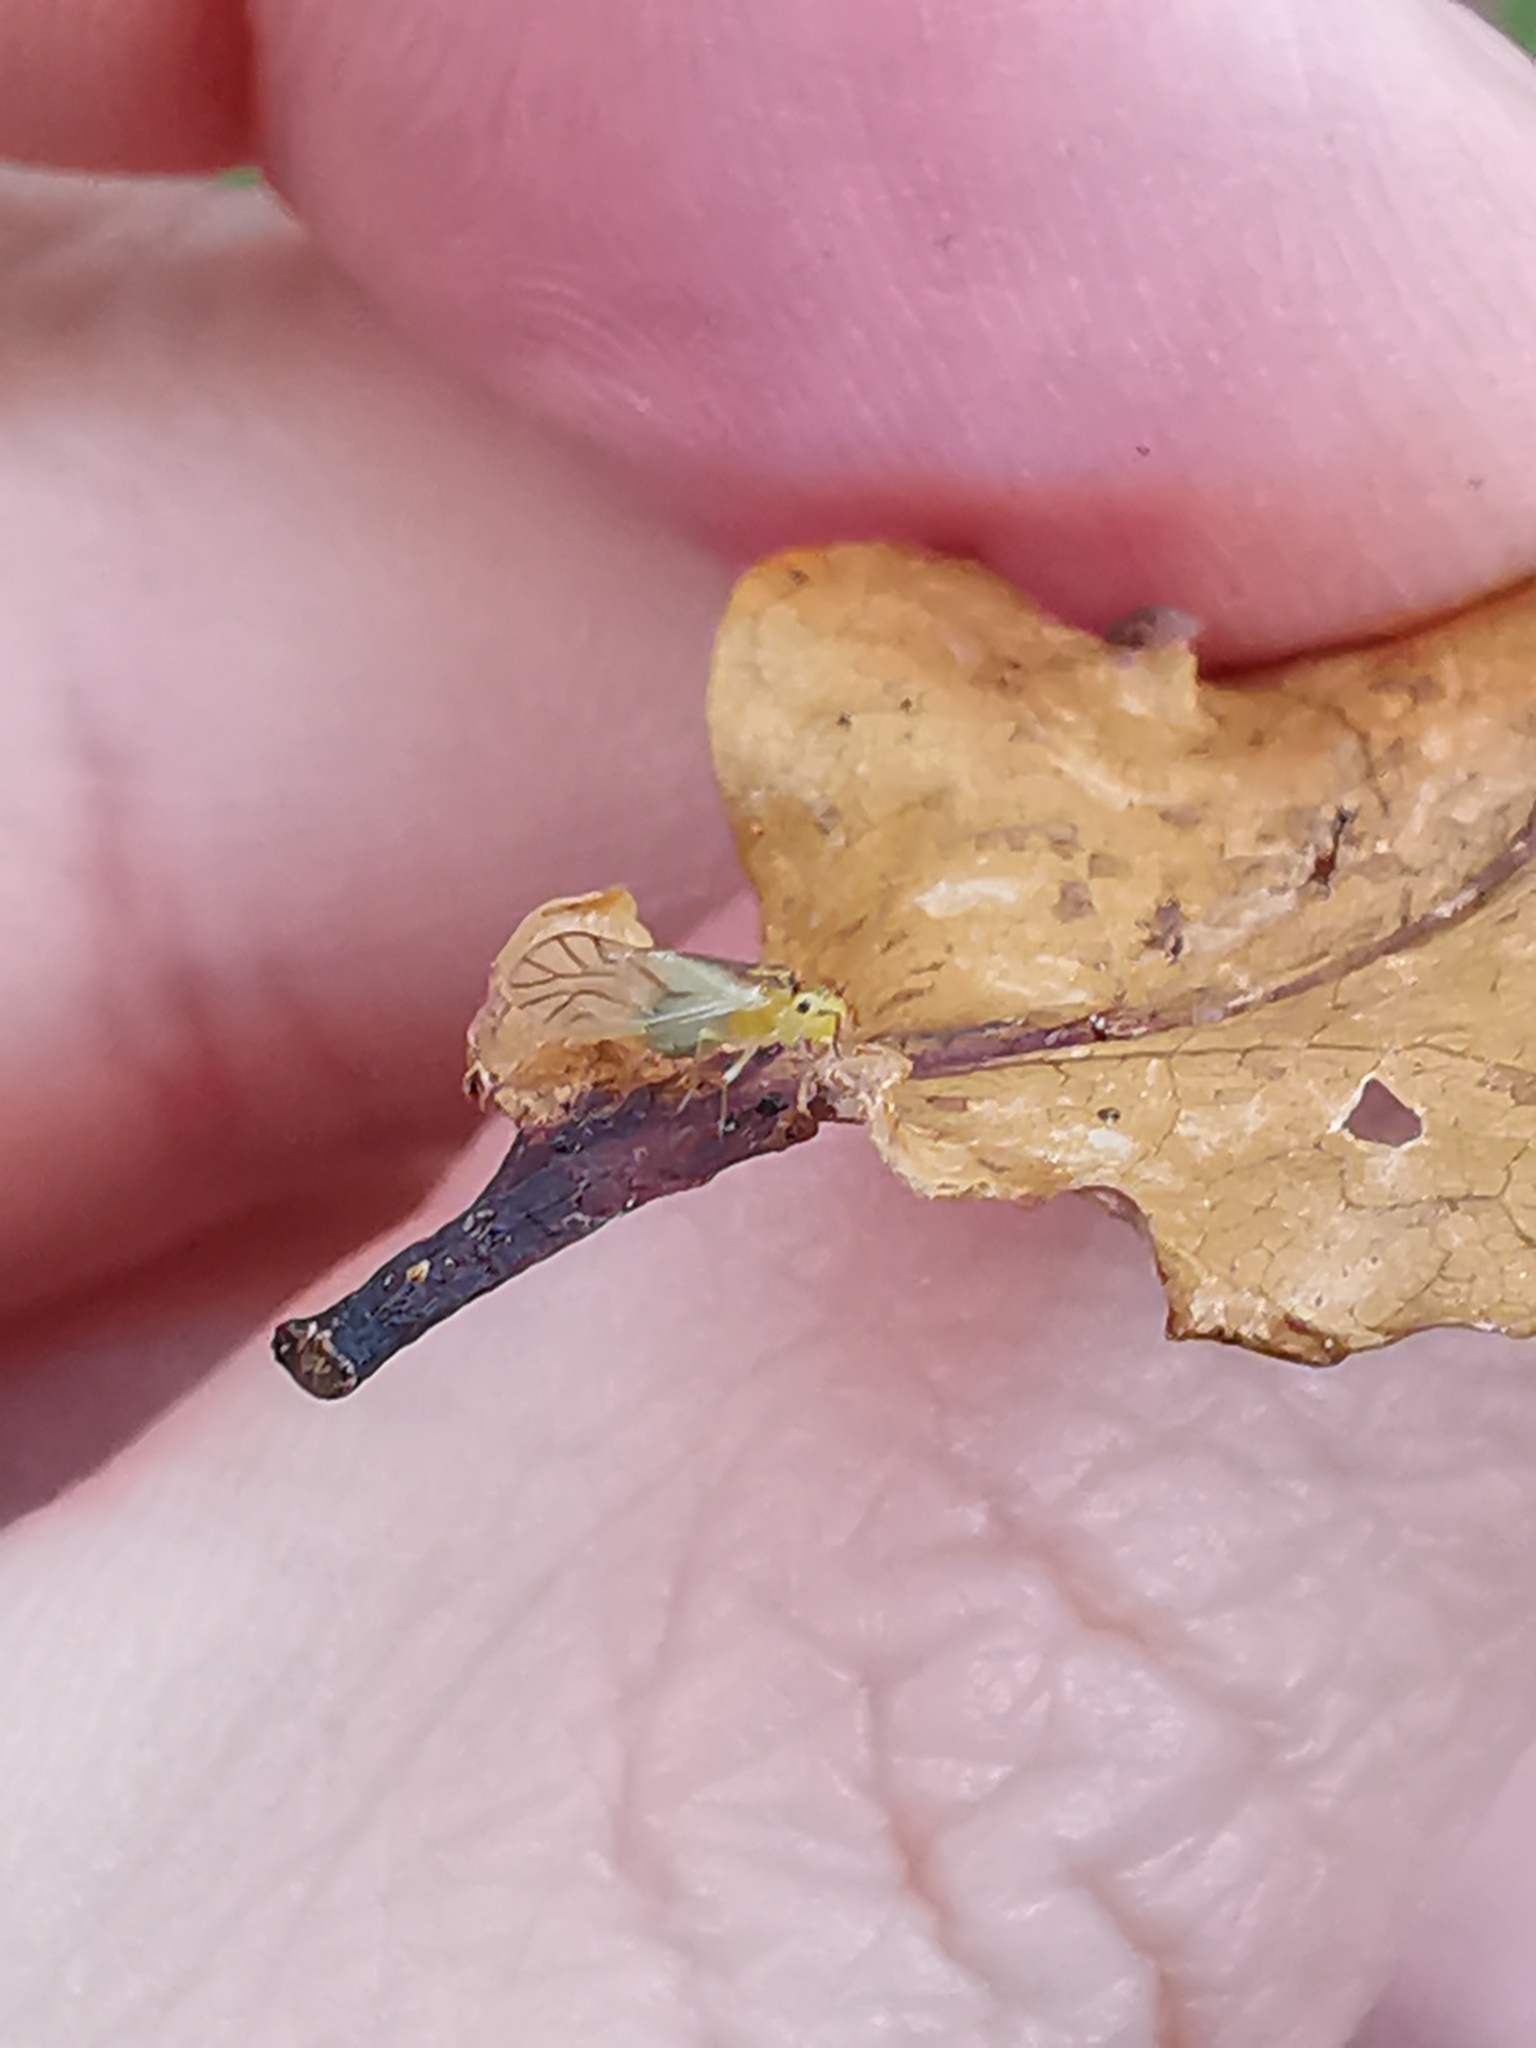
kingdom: Animalia
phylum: Arthropoda
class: Insecta
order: Psocodea
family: Caeciliusidae
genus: Valenzuela
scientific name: Valenzuela flavidus
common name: Yellow barklouse
